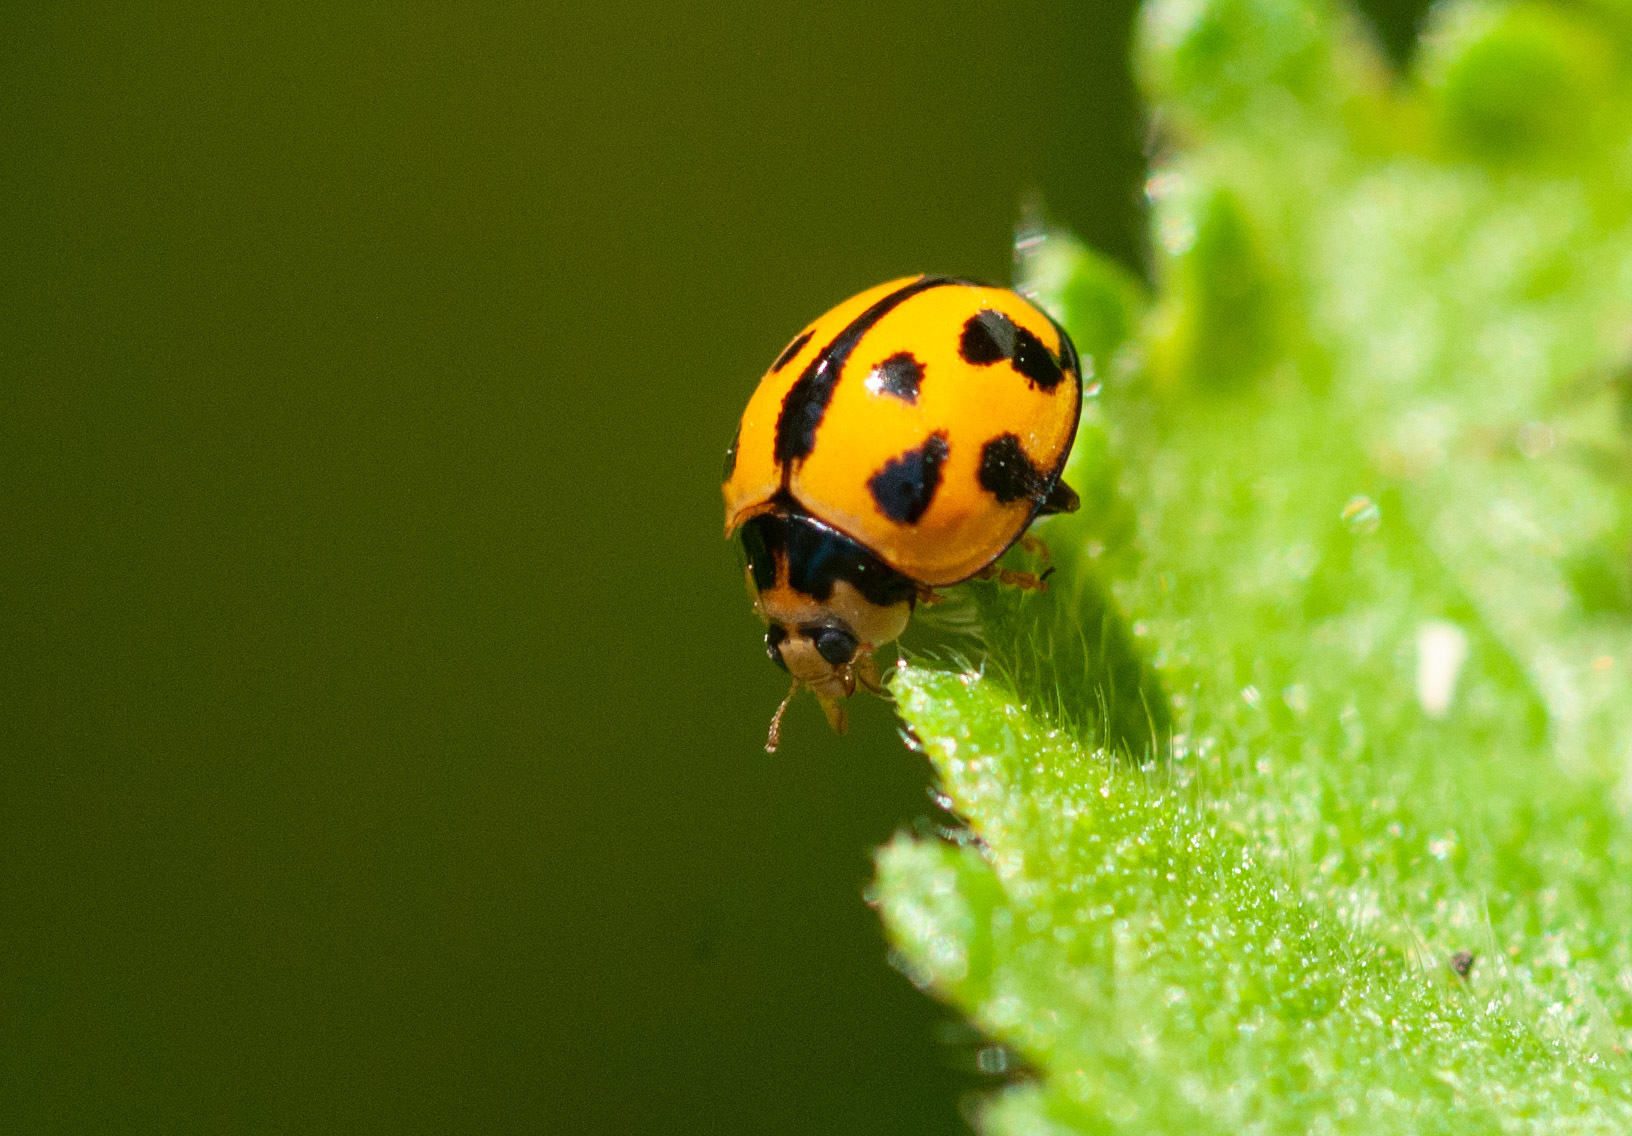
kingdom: Animalia
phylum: Arthropoda
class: Insecta
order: Coleoptera
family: Coccinellidae
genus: Coelophora
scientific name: Coelophora inaequalis
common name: Common australian lady beetle
